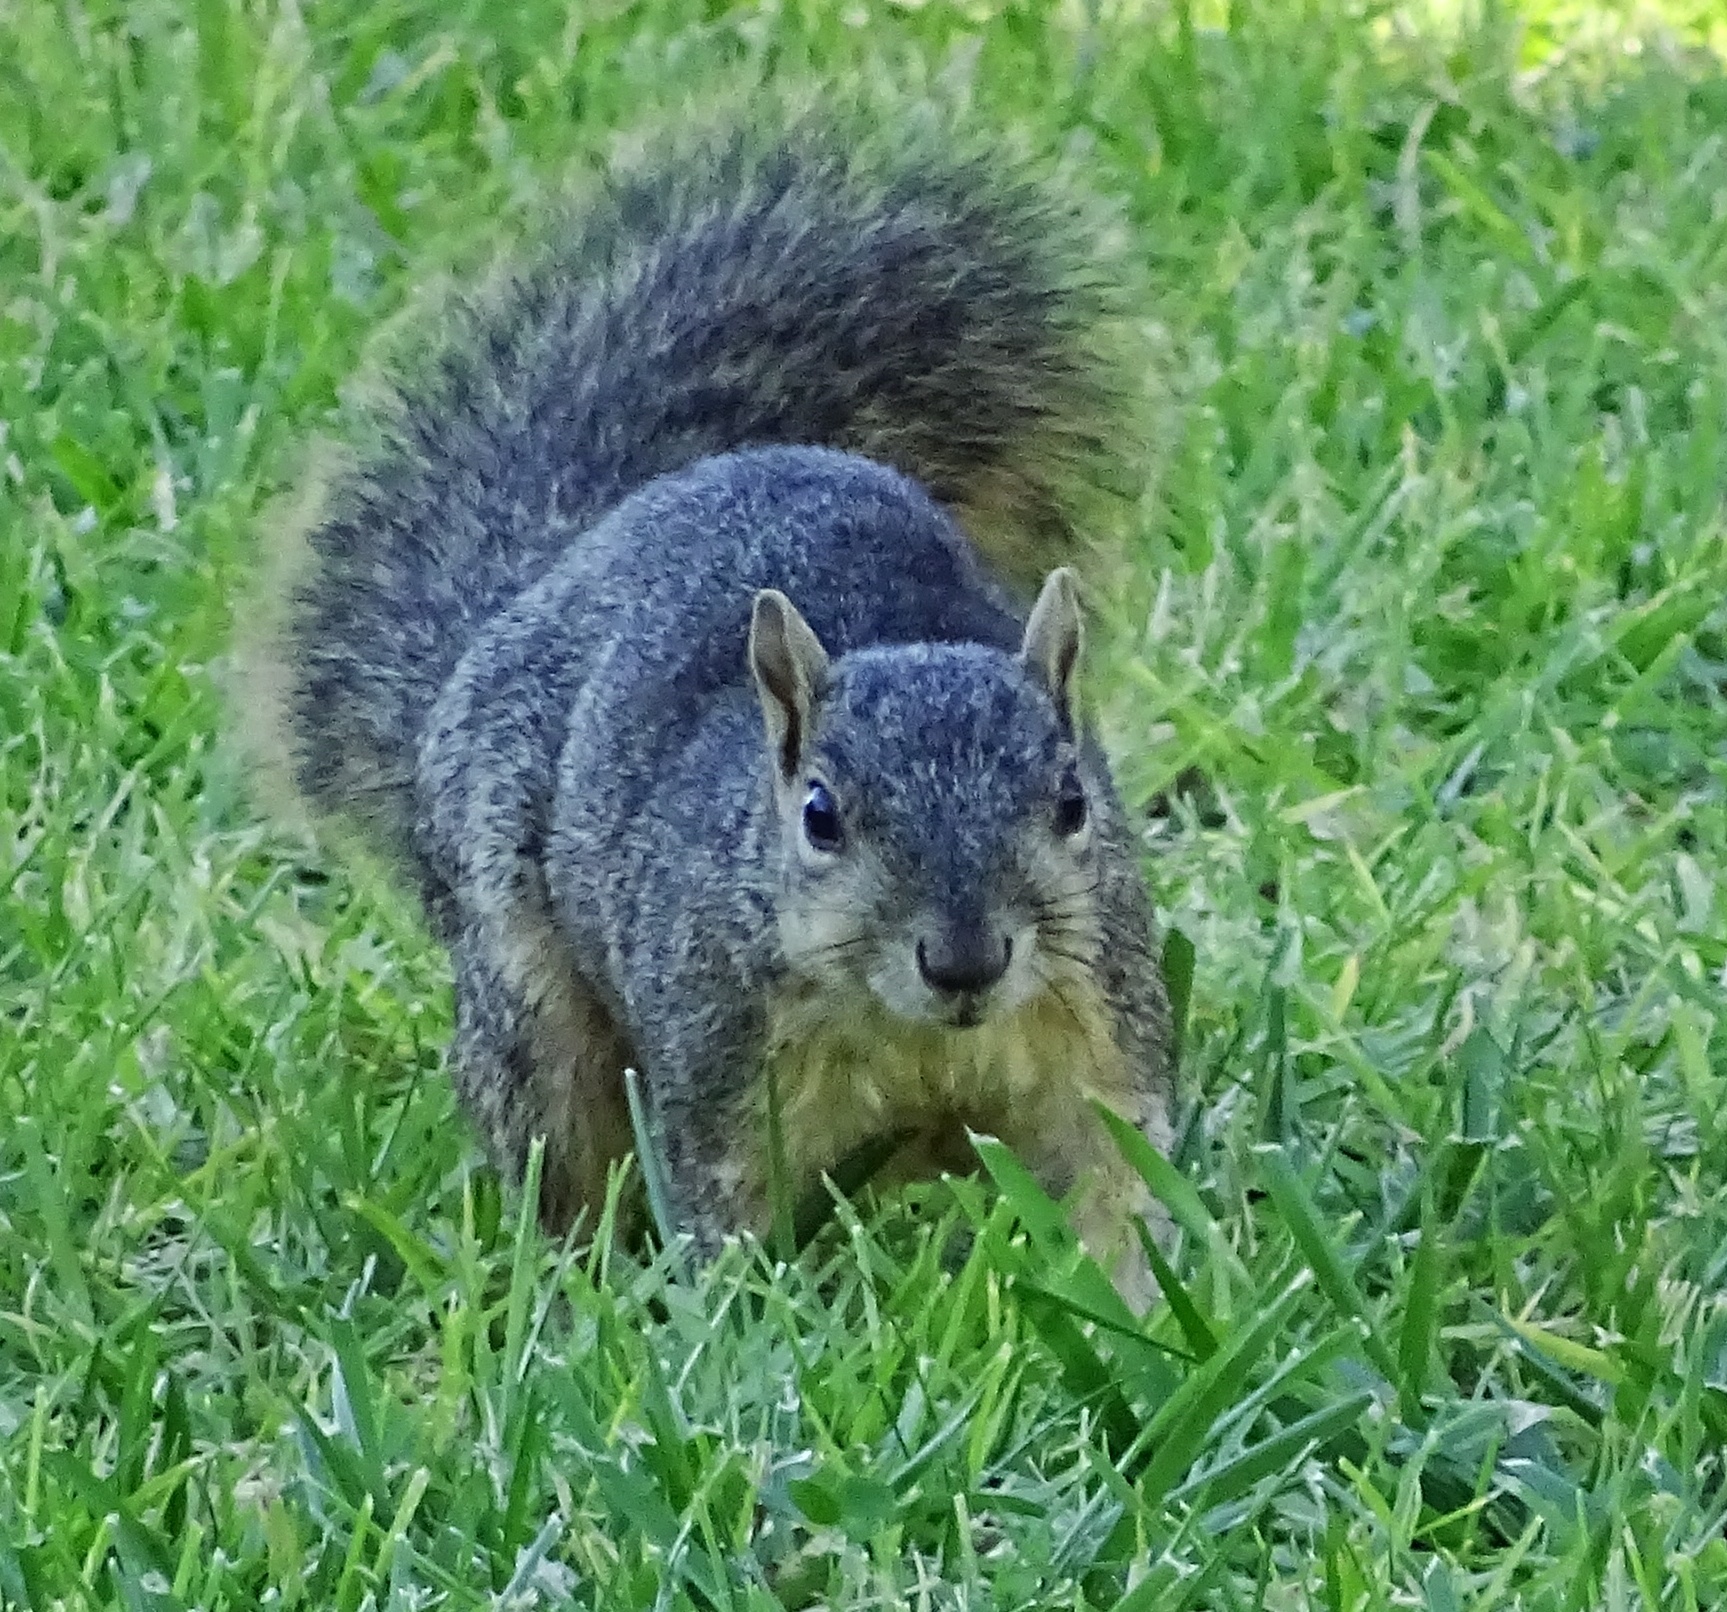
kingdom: Animalia
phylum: Chordata
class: Mammalia
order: Rodentia
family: Sciuridae
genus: Sciurus
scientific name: Sciurus niger
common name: Fox squirrel
